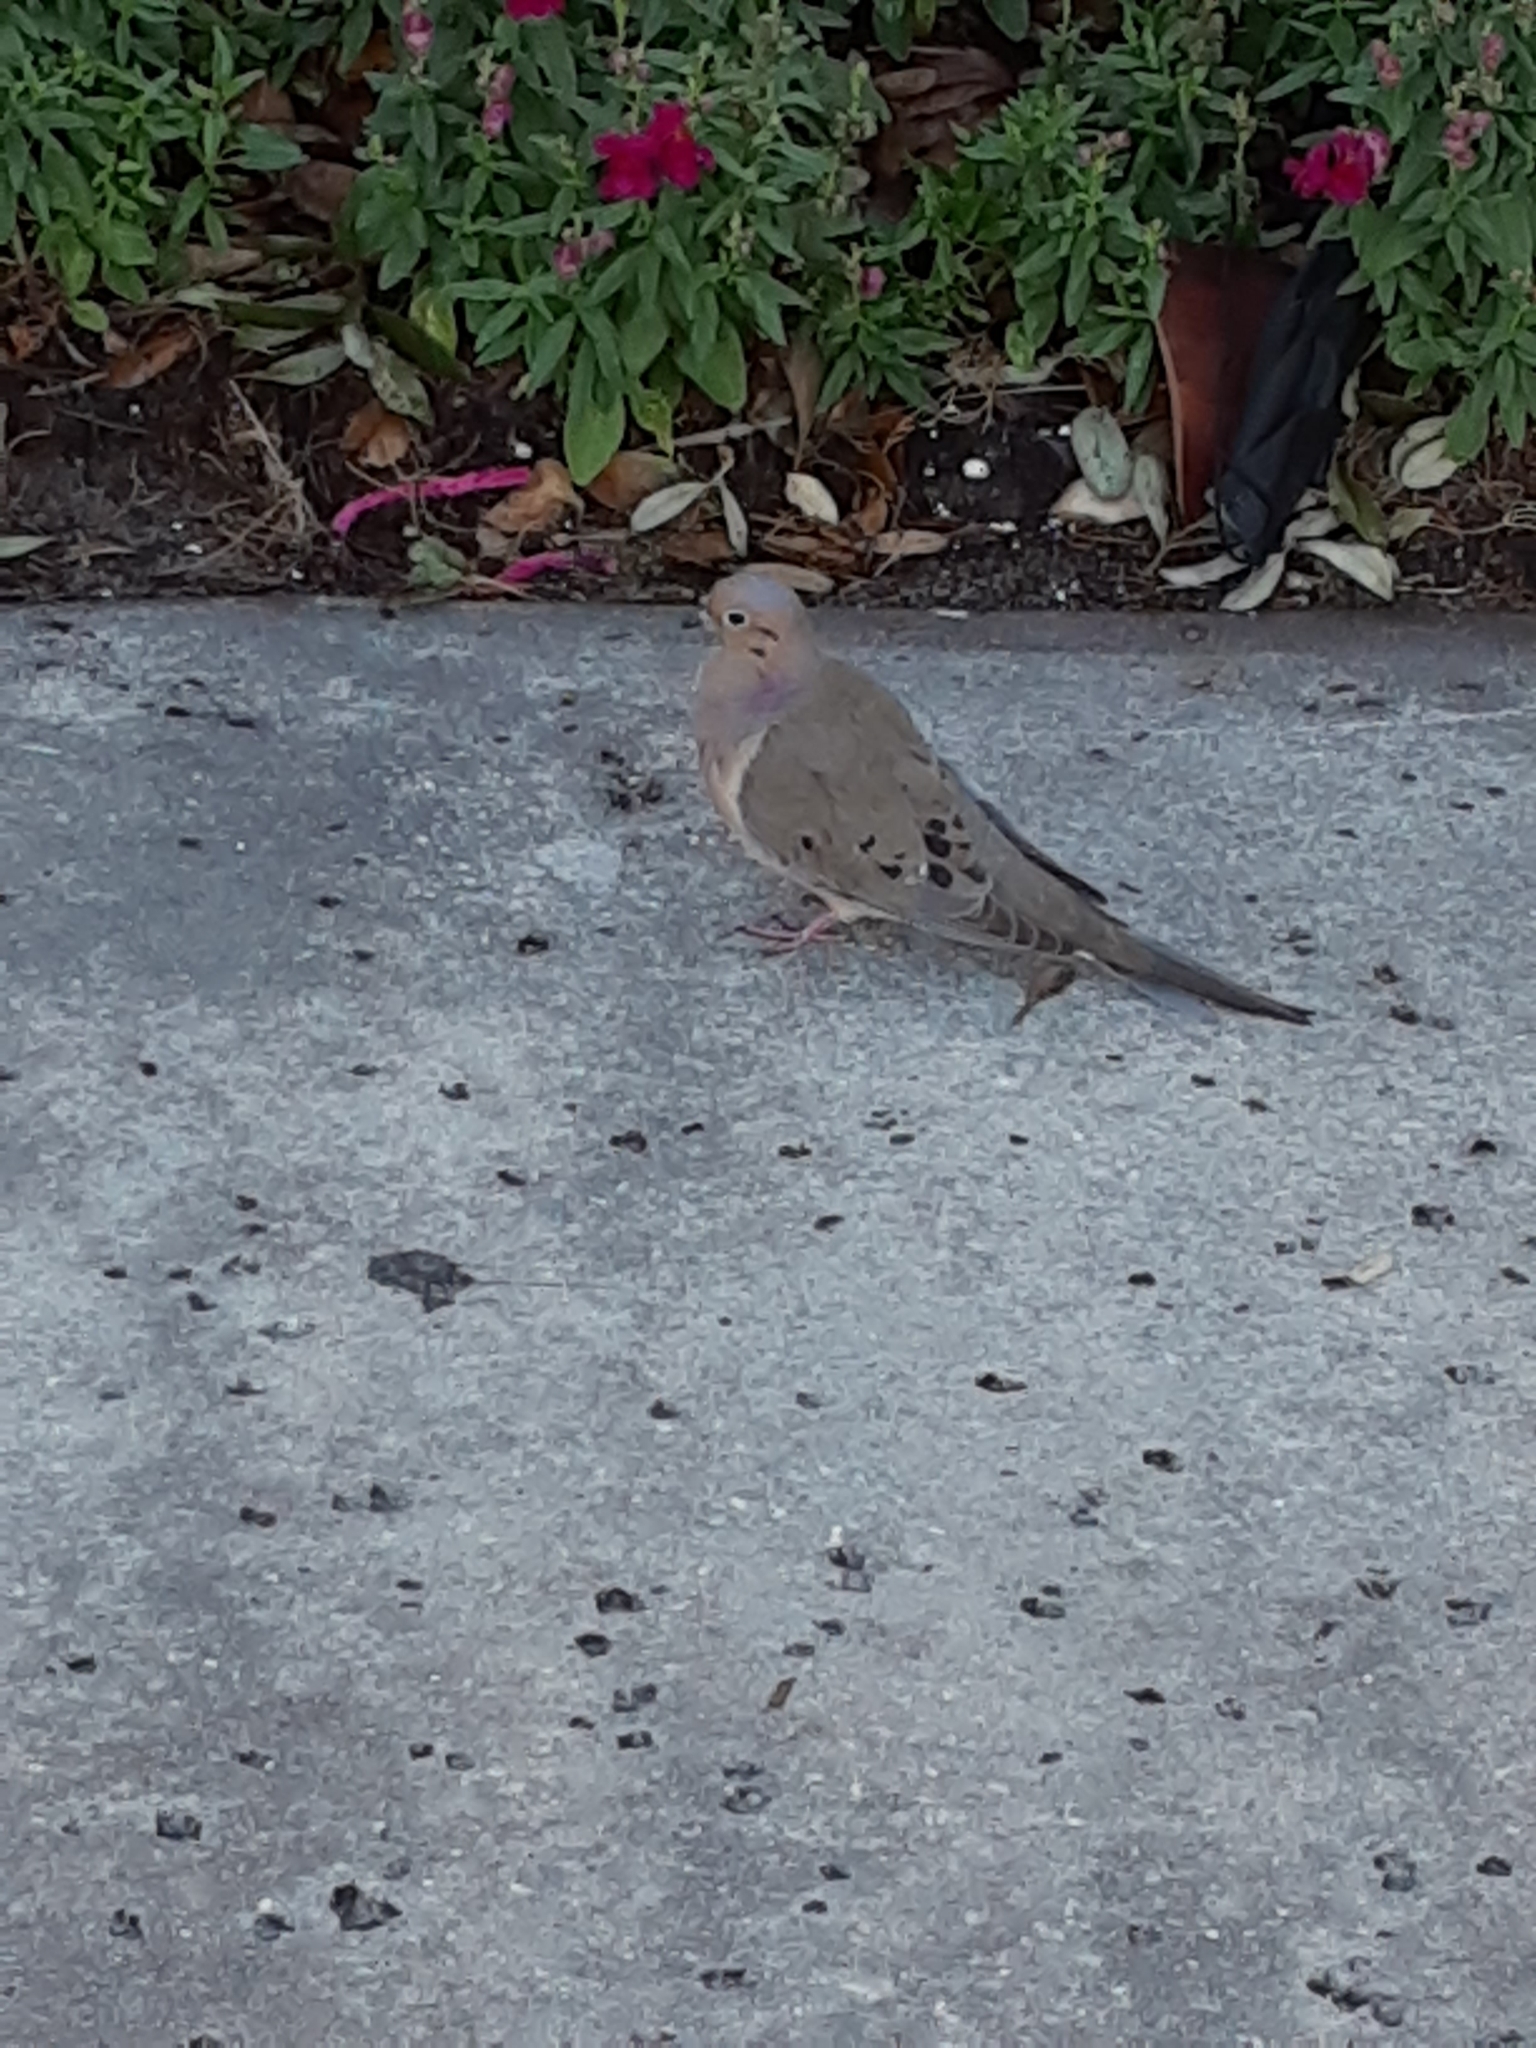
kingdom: Animalia
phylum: Chordata
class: Aves
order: Columbiformes
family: Columbidae
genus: Zenaida
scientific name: Zenaida macroura
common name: Mourning dove
